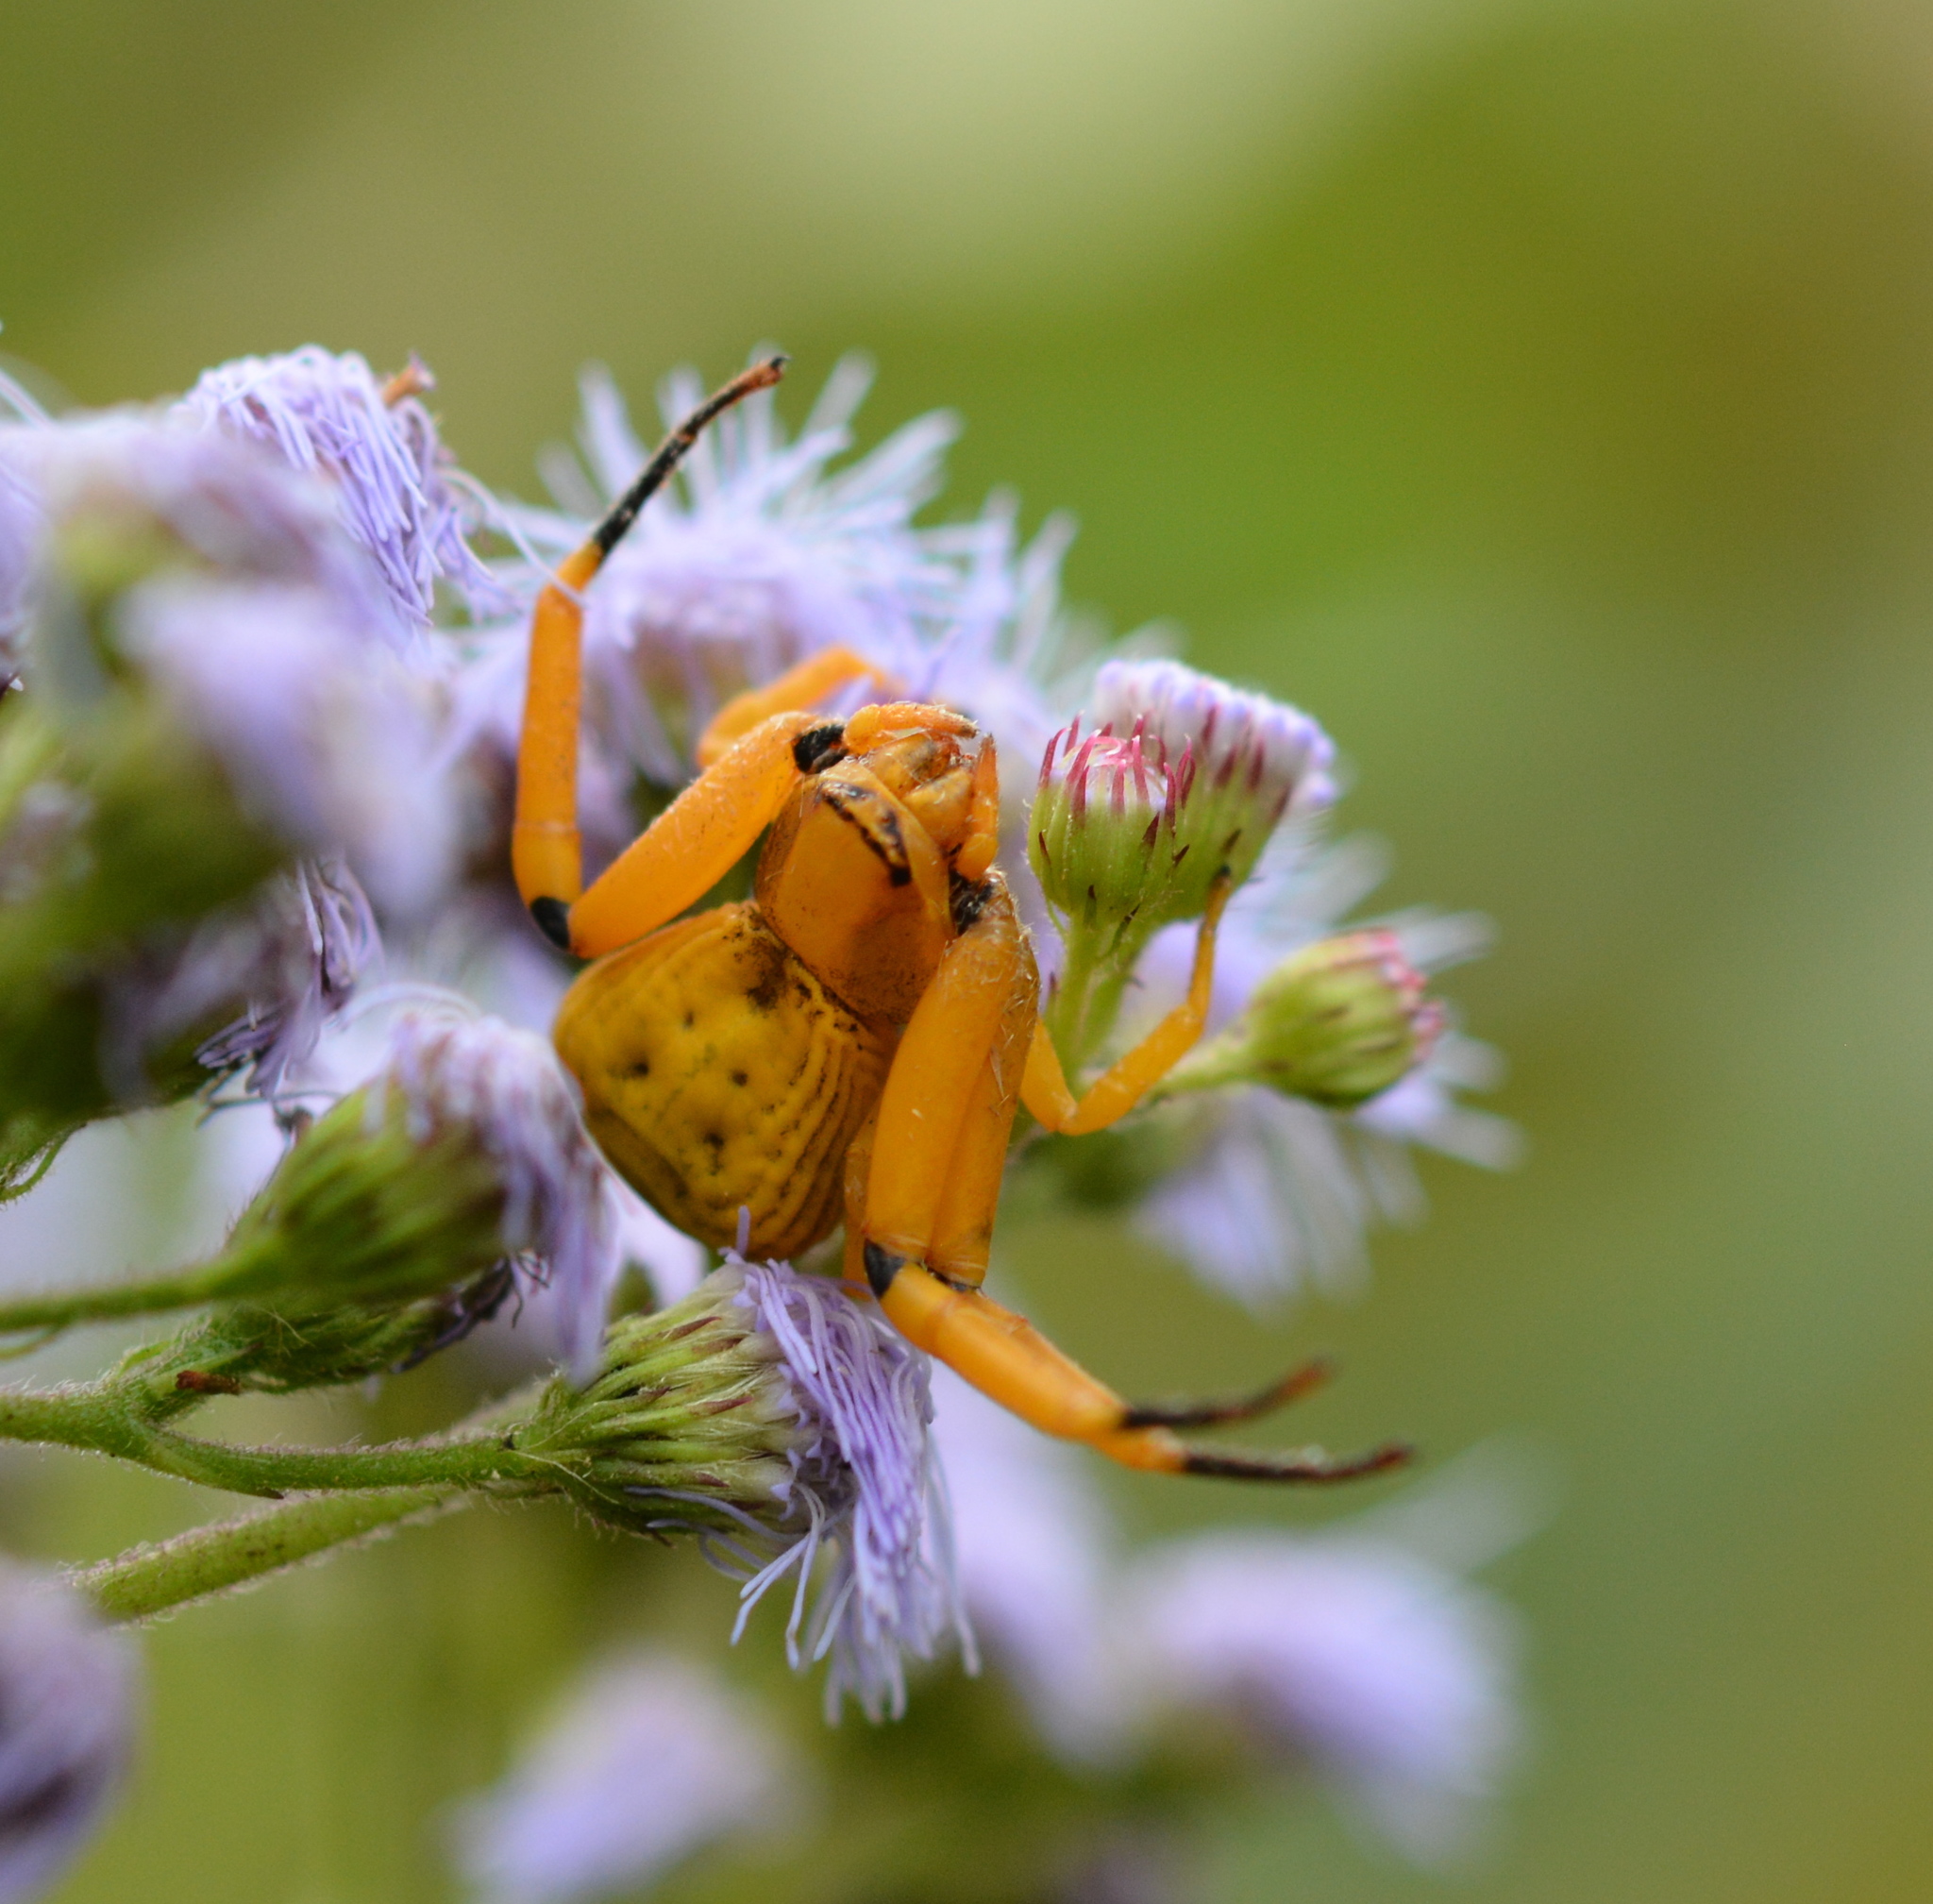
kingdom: Animalia
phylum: Arthropoda
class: Arachnida
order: Araneae
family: Thomisidae
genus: Misumenoides
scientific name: Misumenoides formosipes
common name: White-banded crab spider
